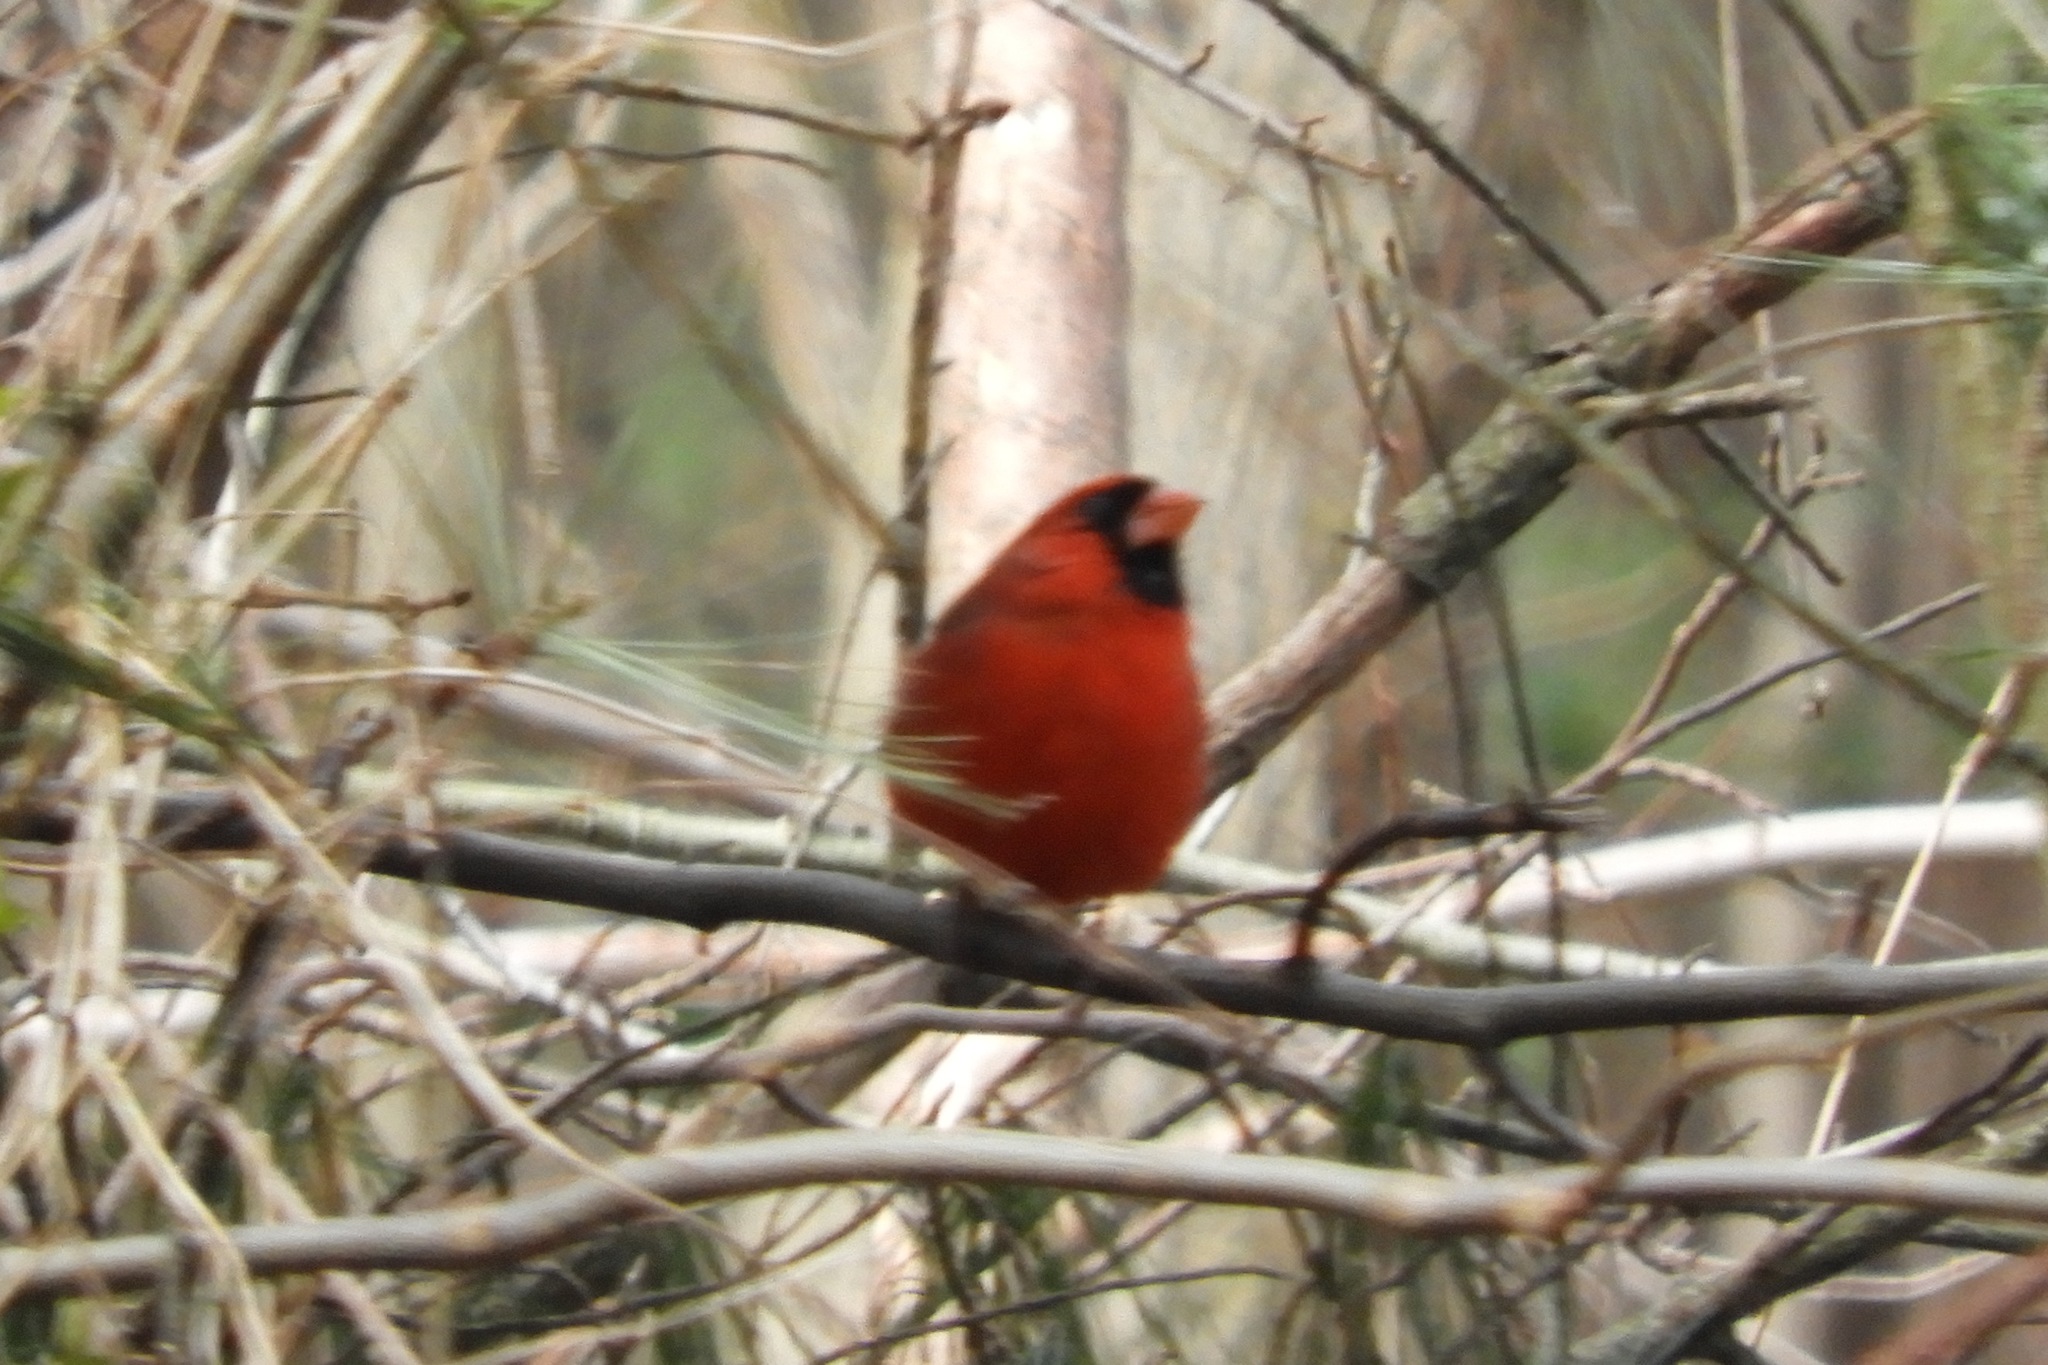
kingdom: Animalia
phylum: Chordata
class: Aves
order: Passeriformes
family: Cardinalidae
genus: Cardinalis
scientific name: Cardinalis cardinalis
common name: Northern cardinal
